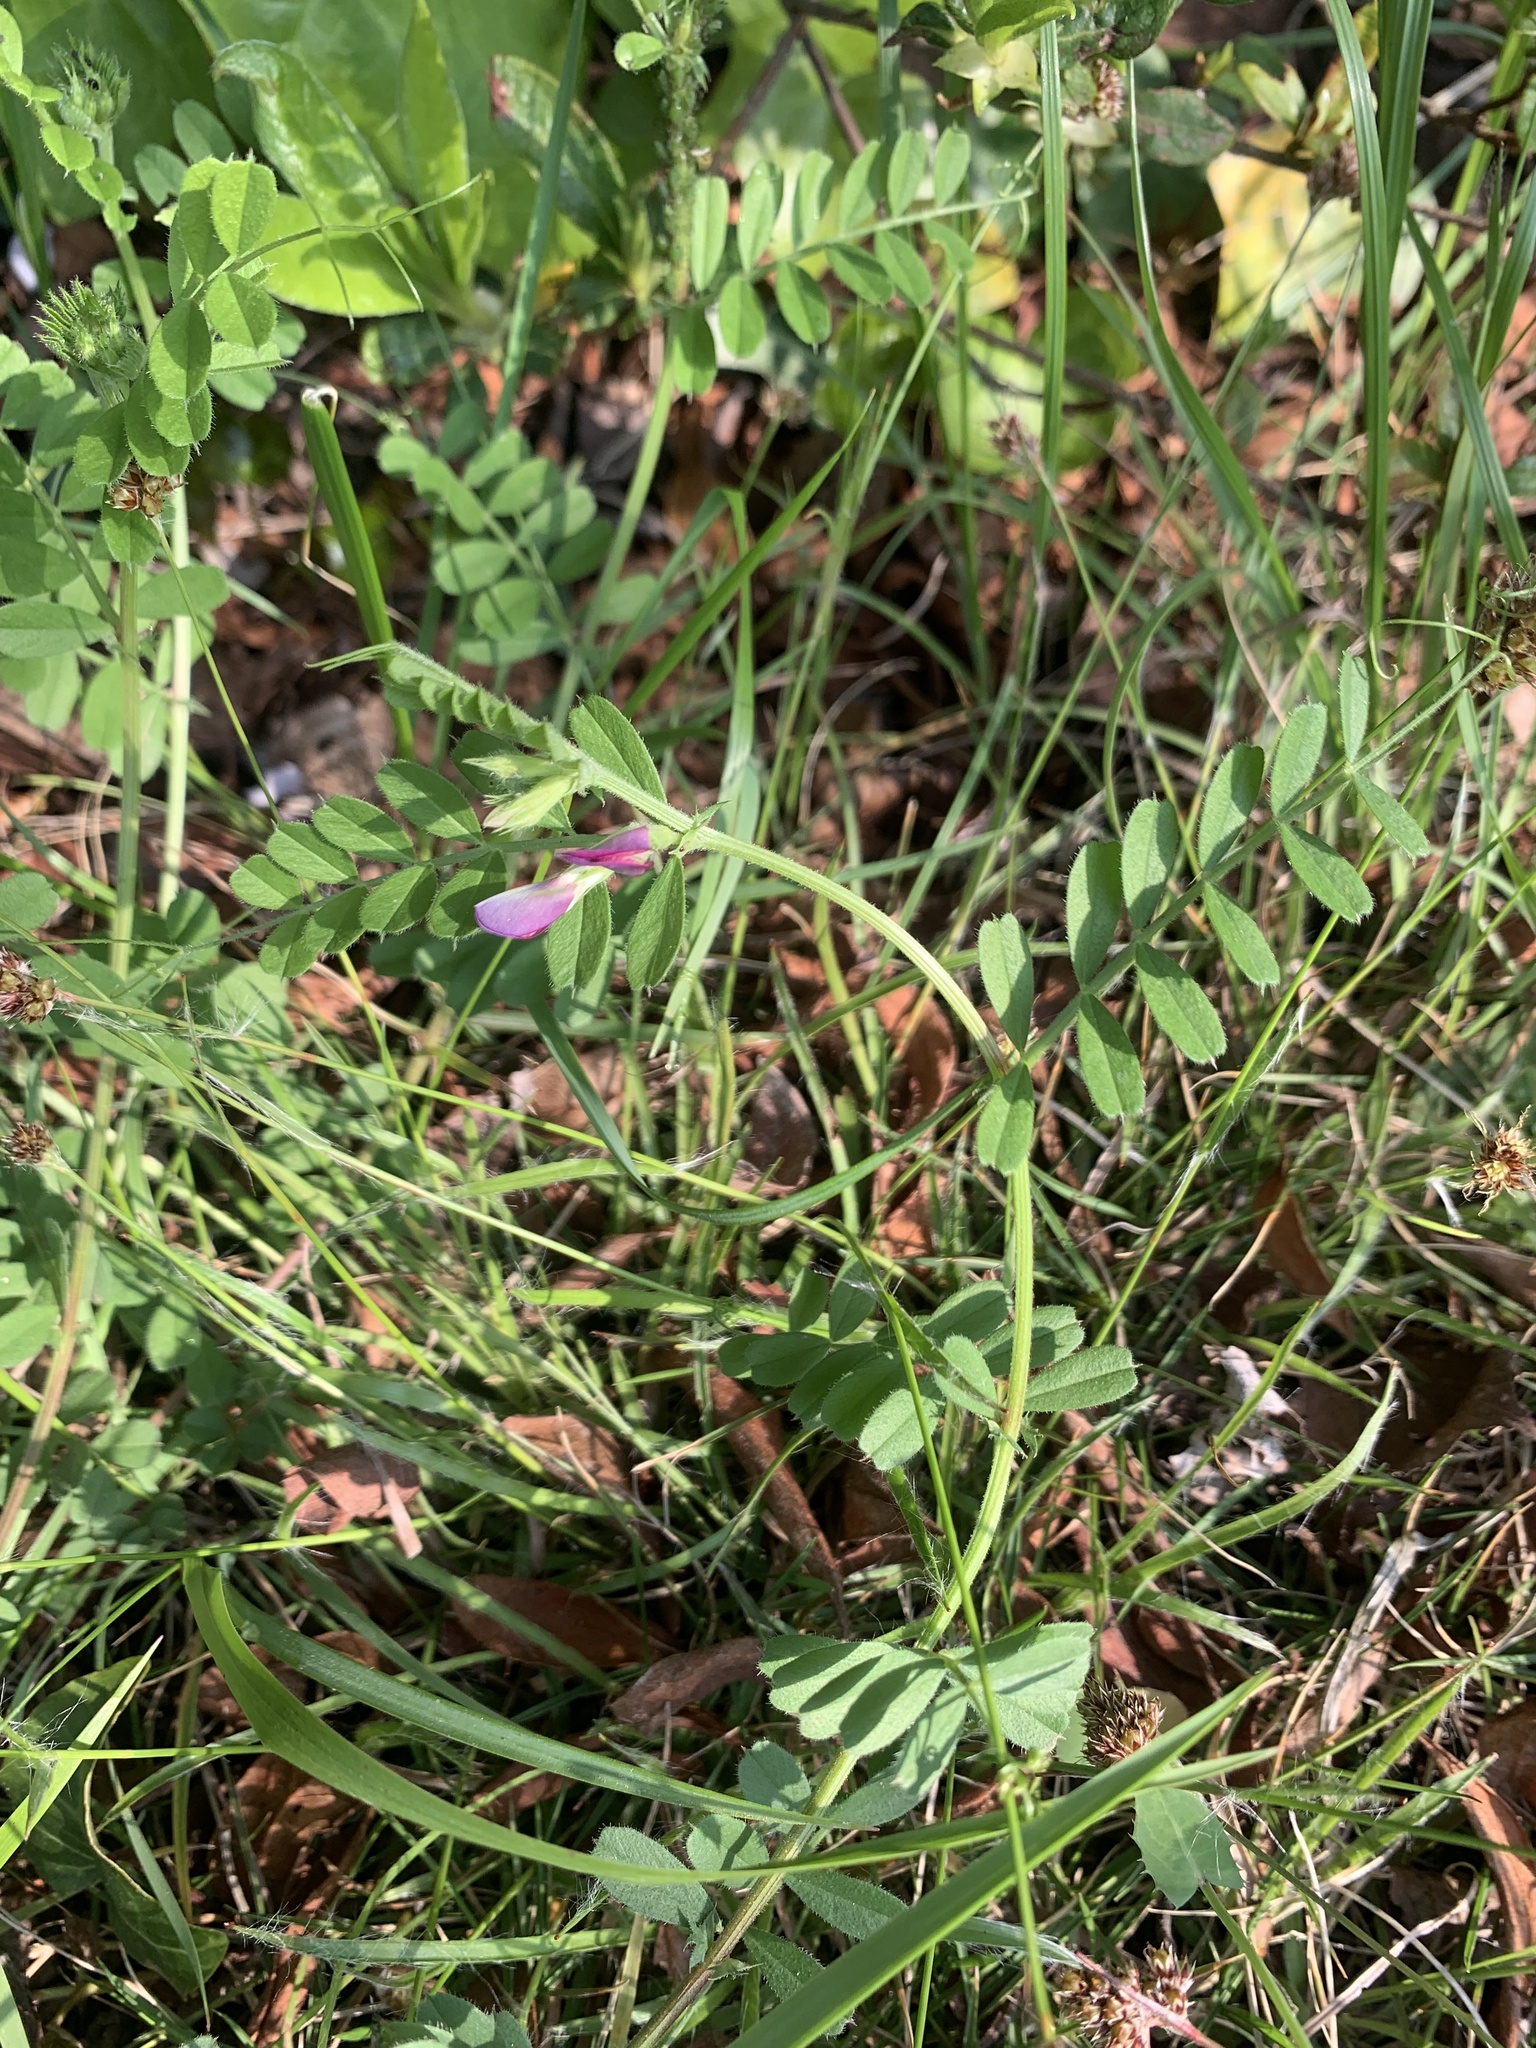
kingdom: Plantae
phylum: Tracheophyta
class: Magnoliopsida
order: Fabales
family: Fabaceae
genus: Vicia
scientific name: Vicia sativa
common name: Garden vetch
